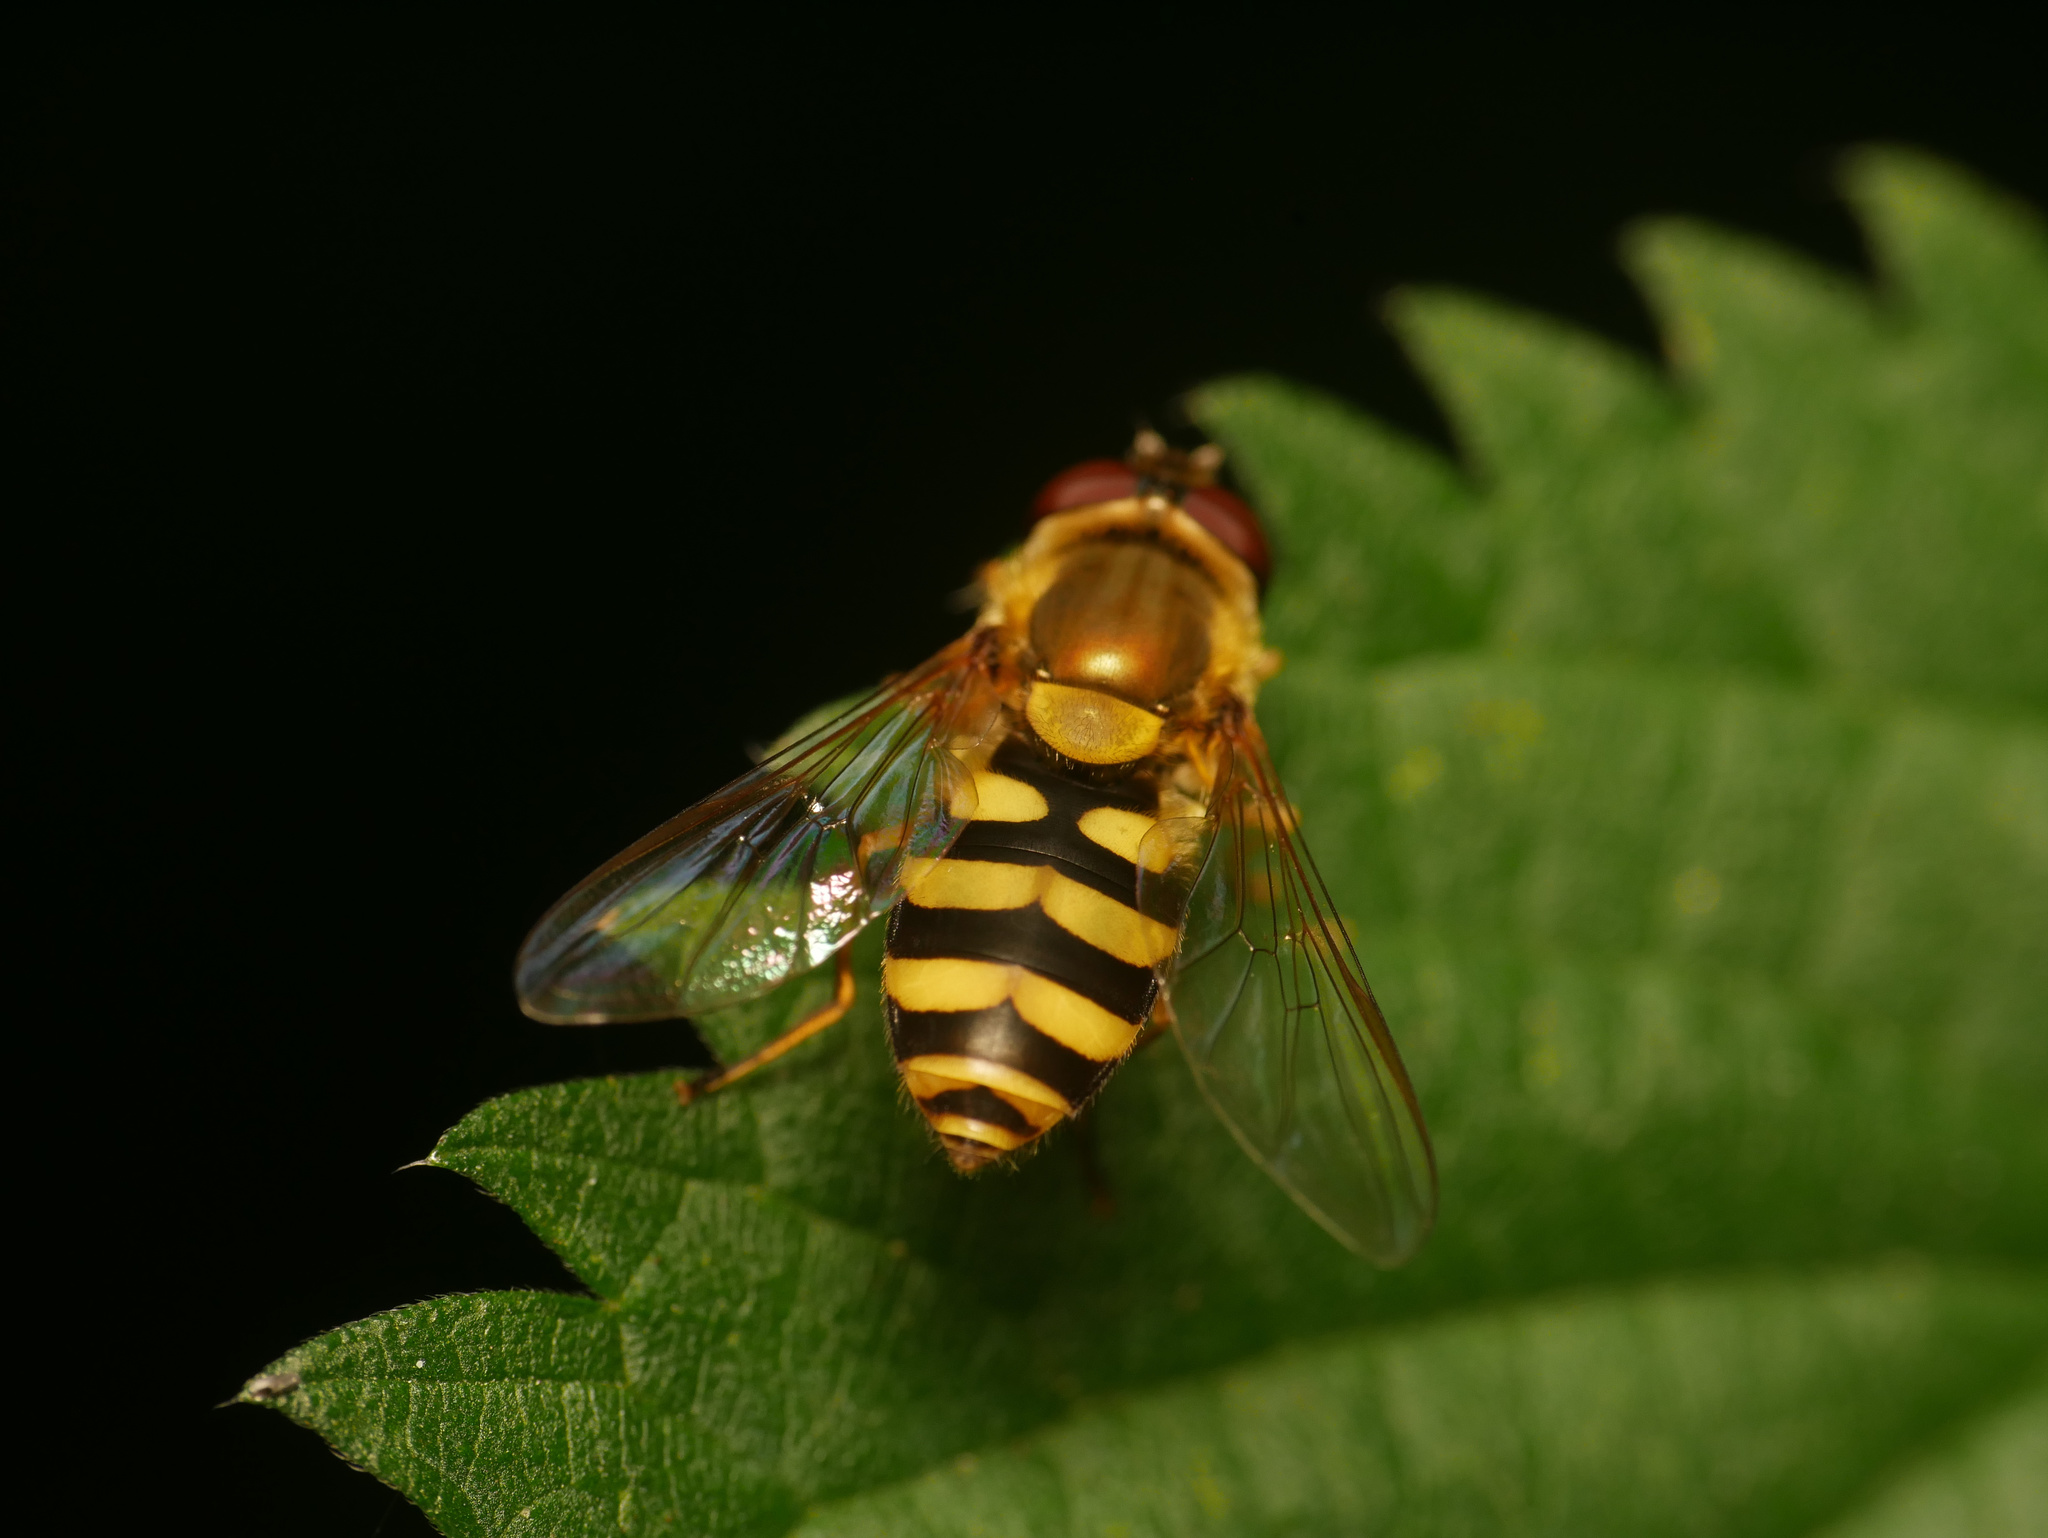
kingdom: Animalia
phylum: Arthropoda
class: Insecta
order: Diptera
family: Syrphidae
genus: Syrphus
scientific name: Syrphus
